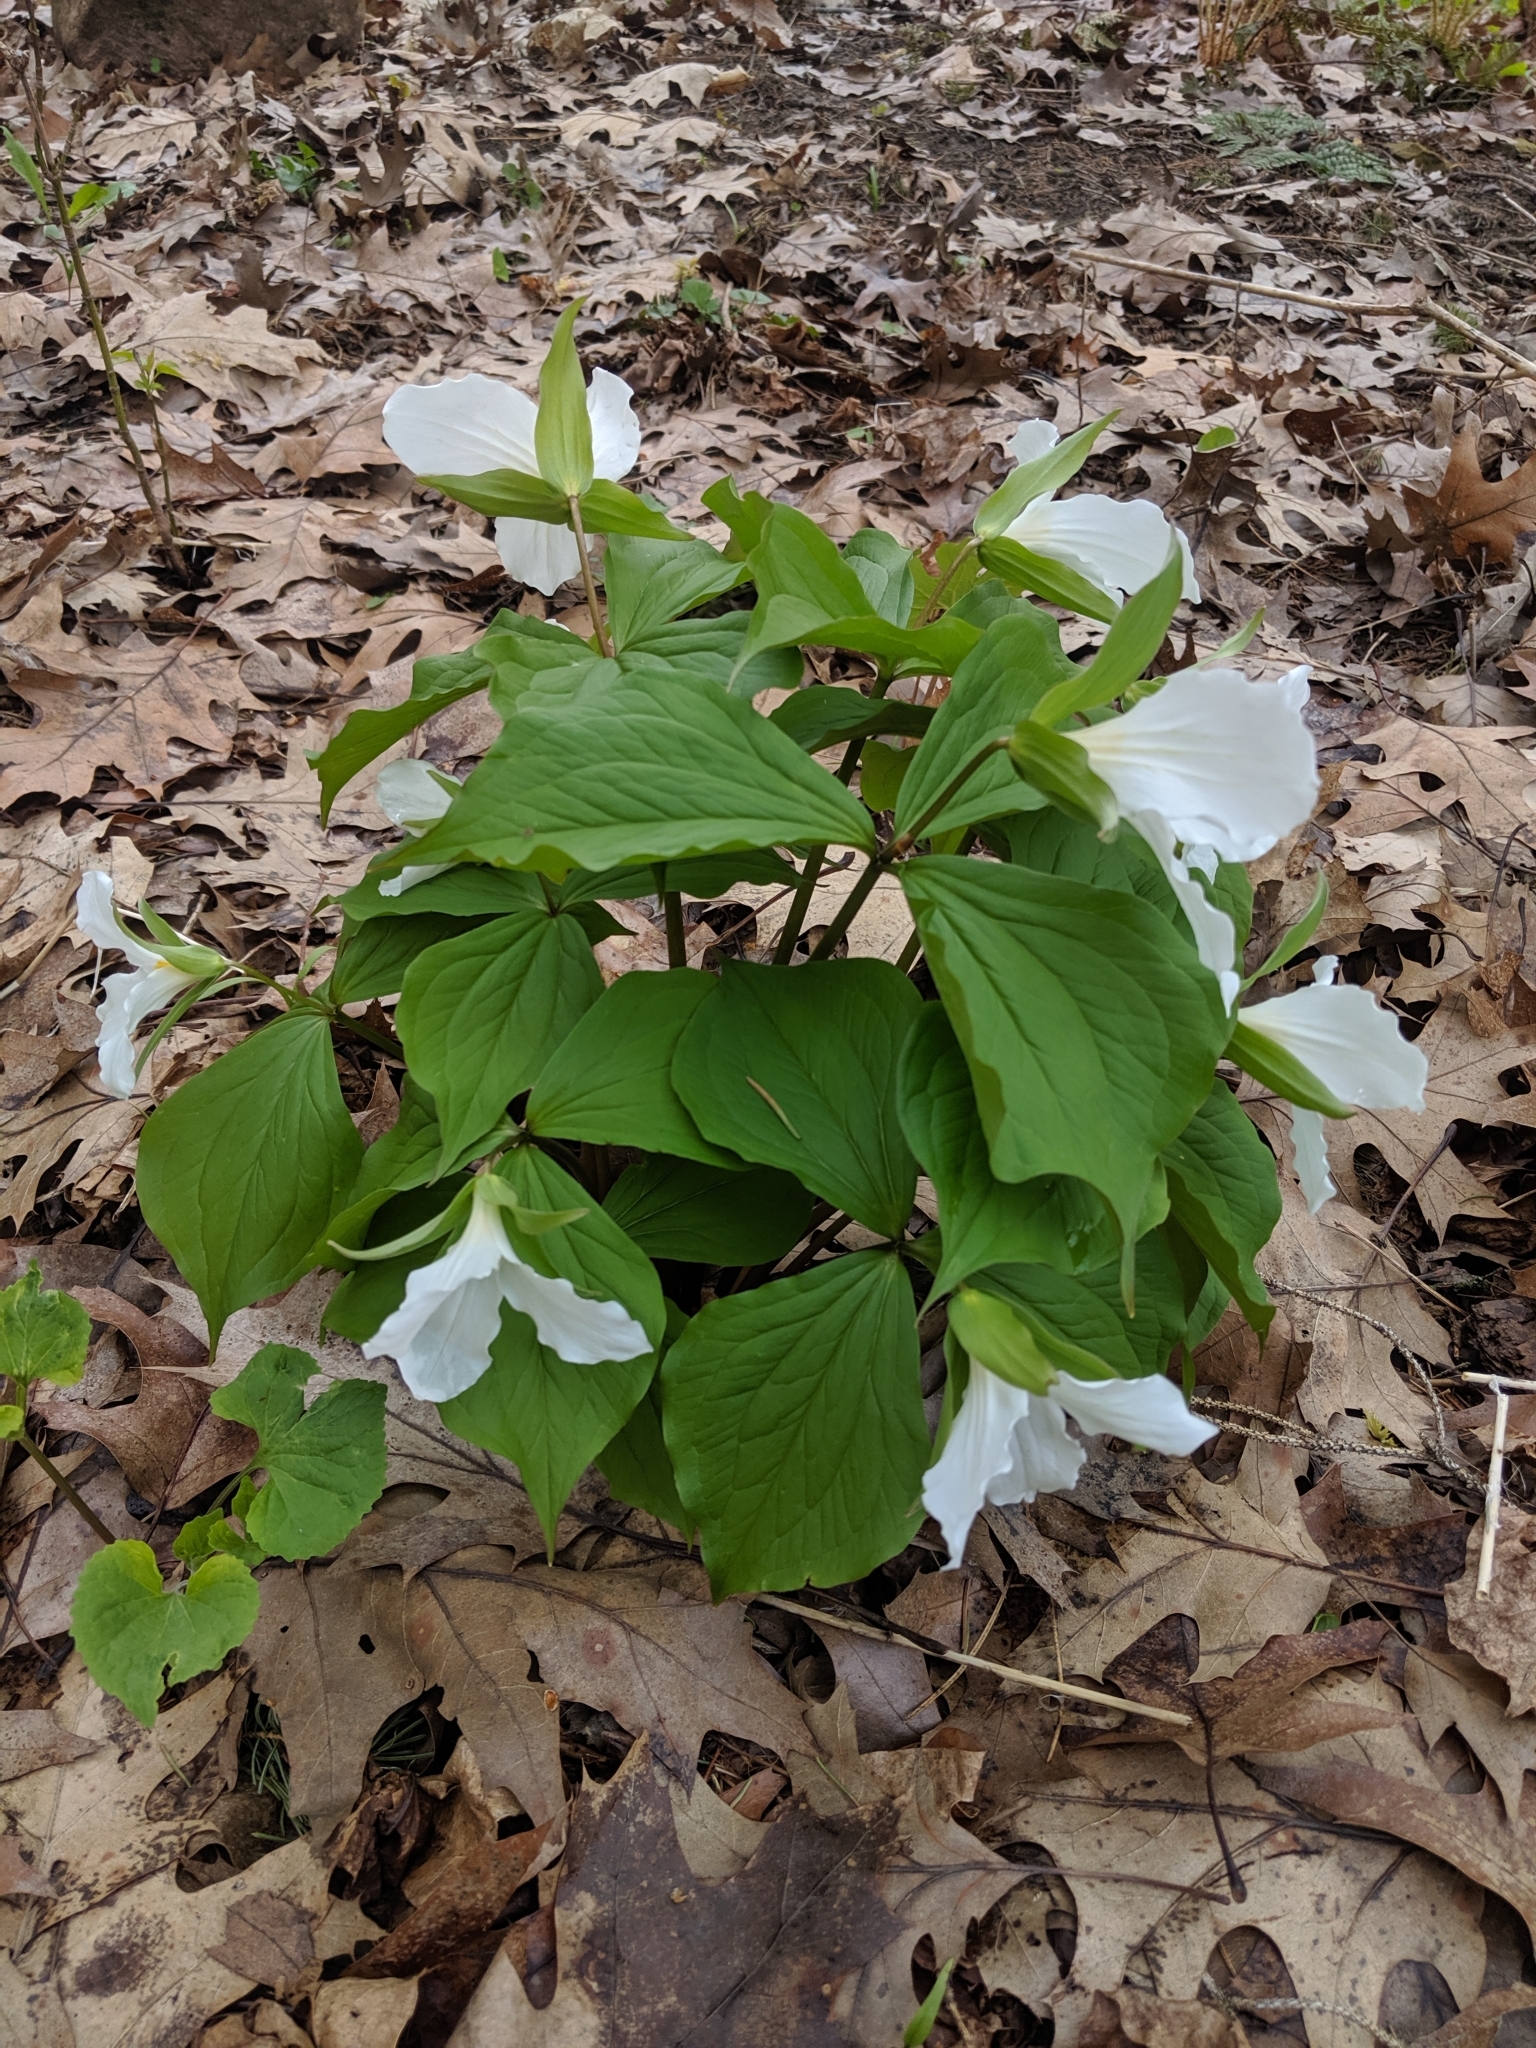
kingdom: Plantae
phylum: Tracheophyta
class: Liliopsida
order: Liliales
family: Melanthiaceae
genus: Trillium
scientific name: Trillium grandiflorum
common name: Great white trillium
